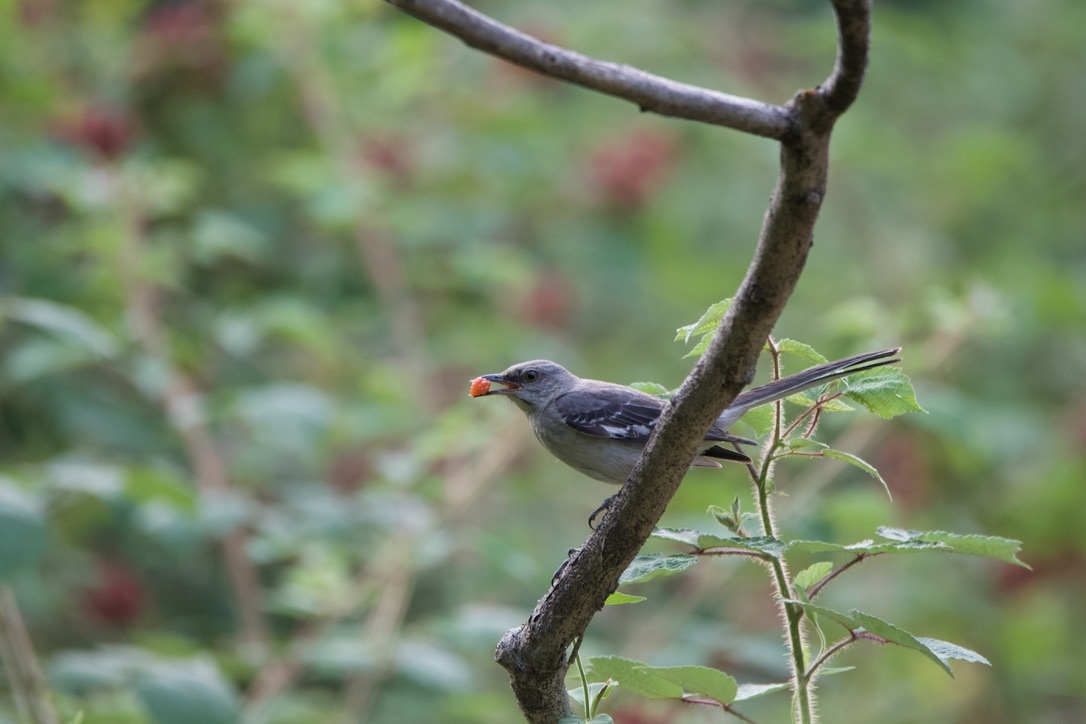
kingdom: Animalia
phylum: Chordata
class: Aves
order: Passeriformes
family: Mimidae
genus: Mimus
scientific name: Mimus polyglottos
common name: Northern mockingbird
